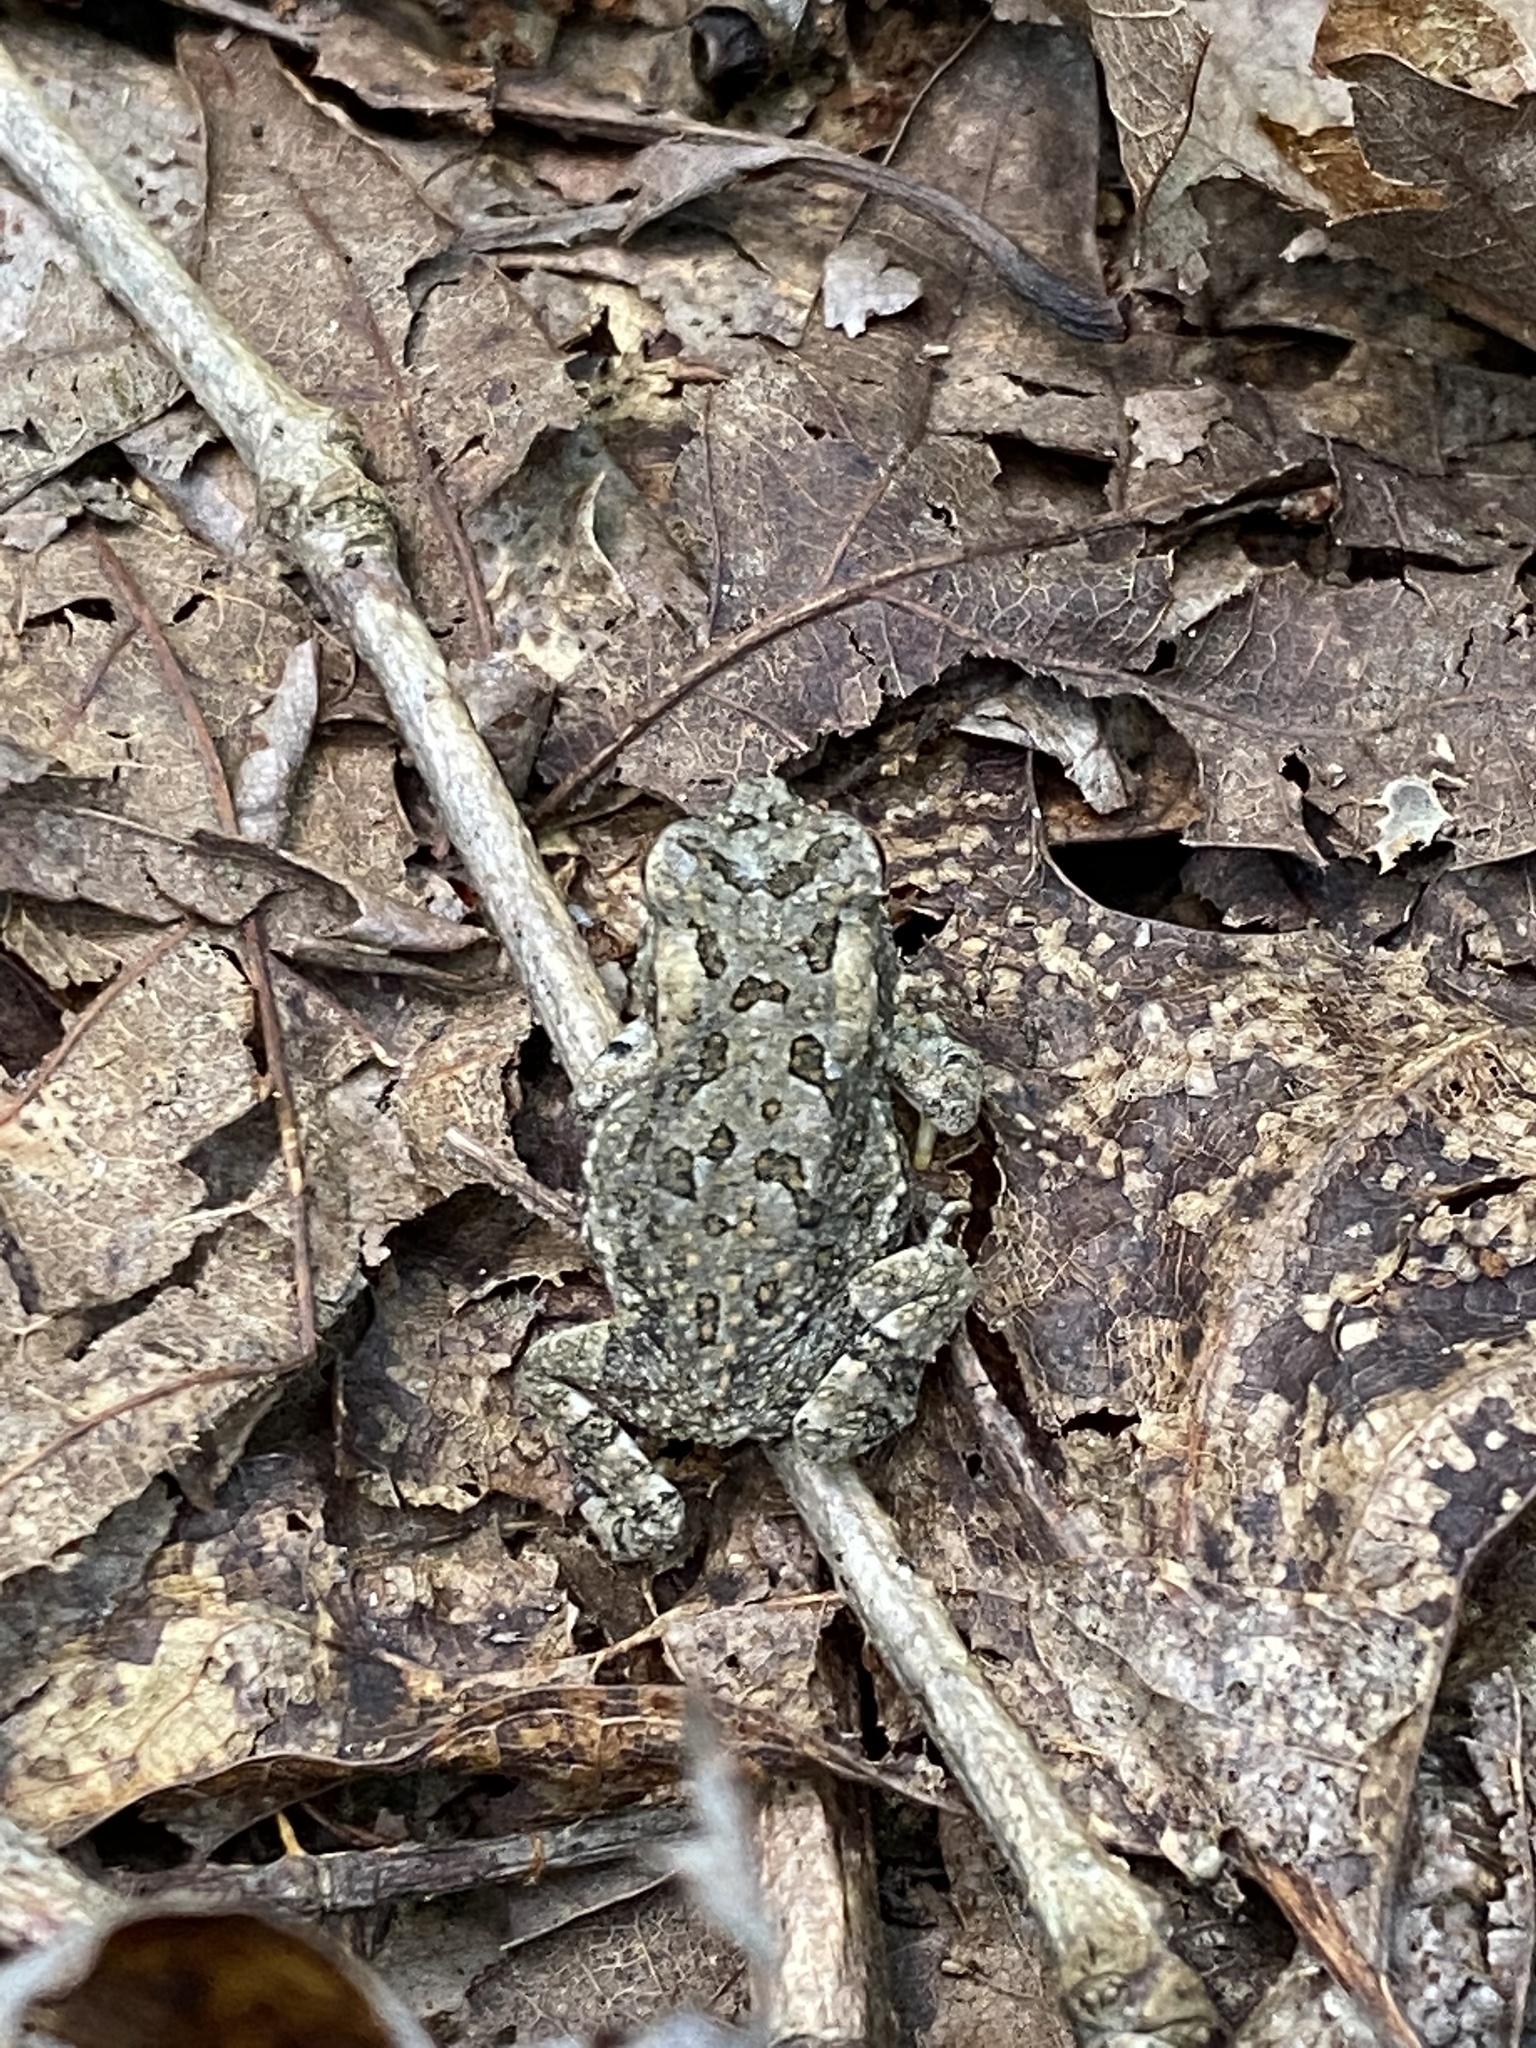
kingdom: Animalia
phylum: Chordata
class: Amphibia
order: Anura
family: Bufonidae
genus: Anaxyrus
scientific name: Anaxyrus fowleri
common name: Fowler's toad
